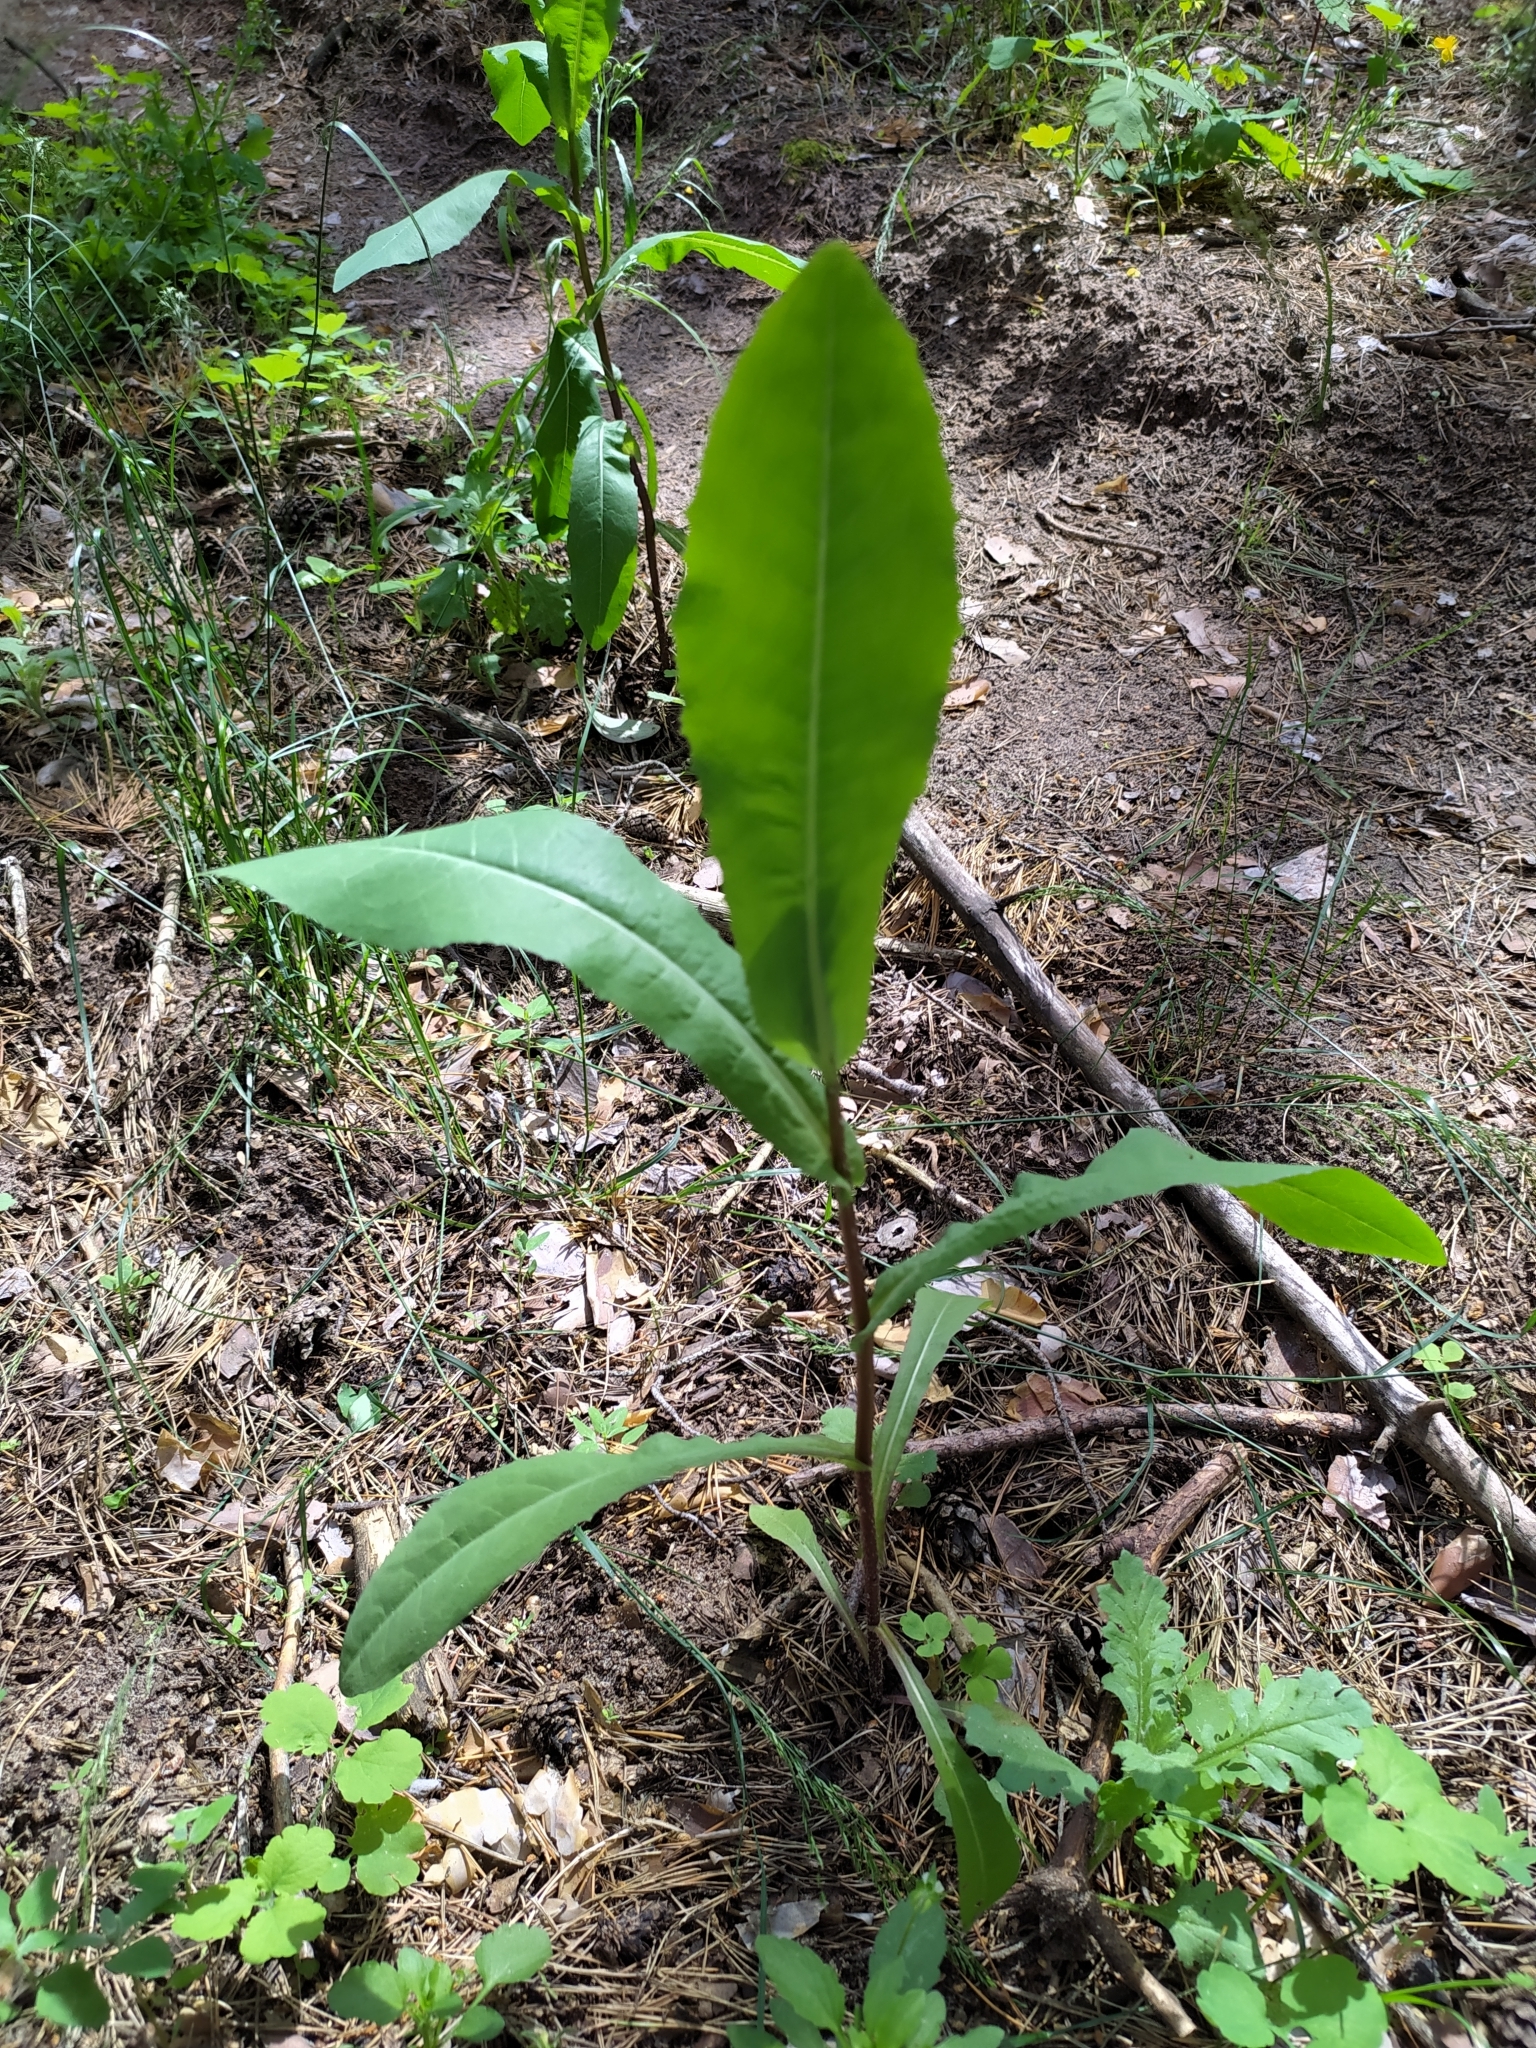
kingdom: Plantae
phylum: Tracheophyta
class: Magnoliopsida
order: Asterales
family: Asteraceae
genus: Lactuca
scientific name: Lactuca serriola
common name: Prickly lettuce
